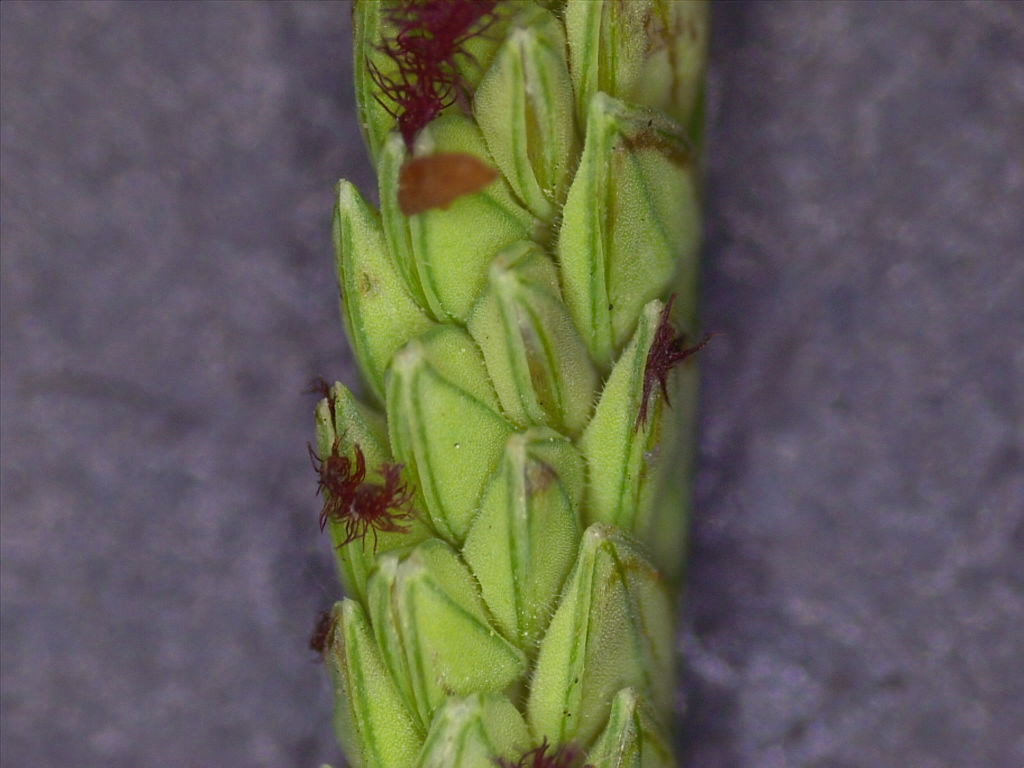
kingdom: Plantae
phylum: Tracheophyta
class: Liliopsida
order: Poales
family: Poaceae
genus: Paspalum
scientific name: Paspalum denticulatum
